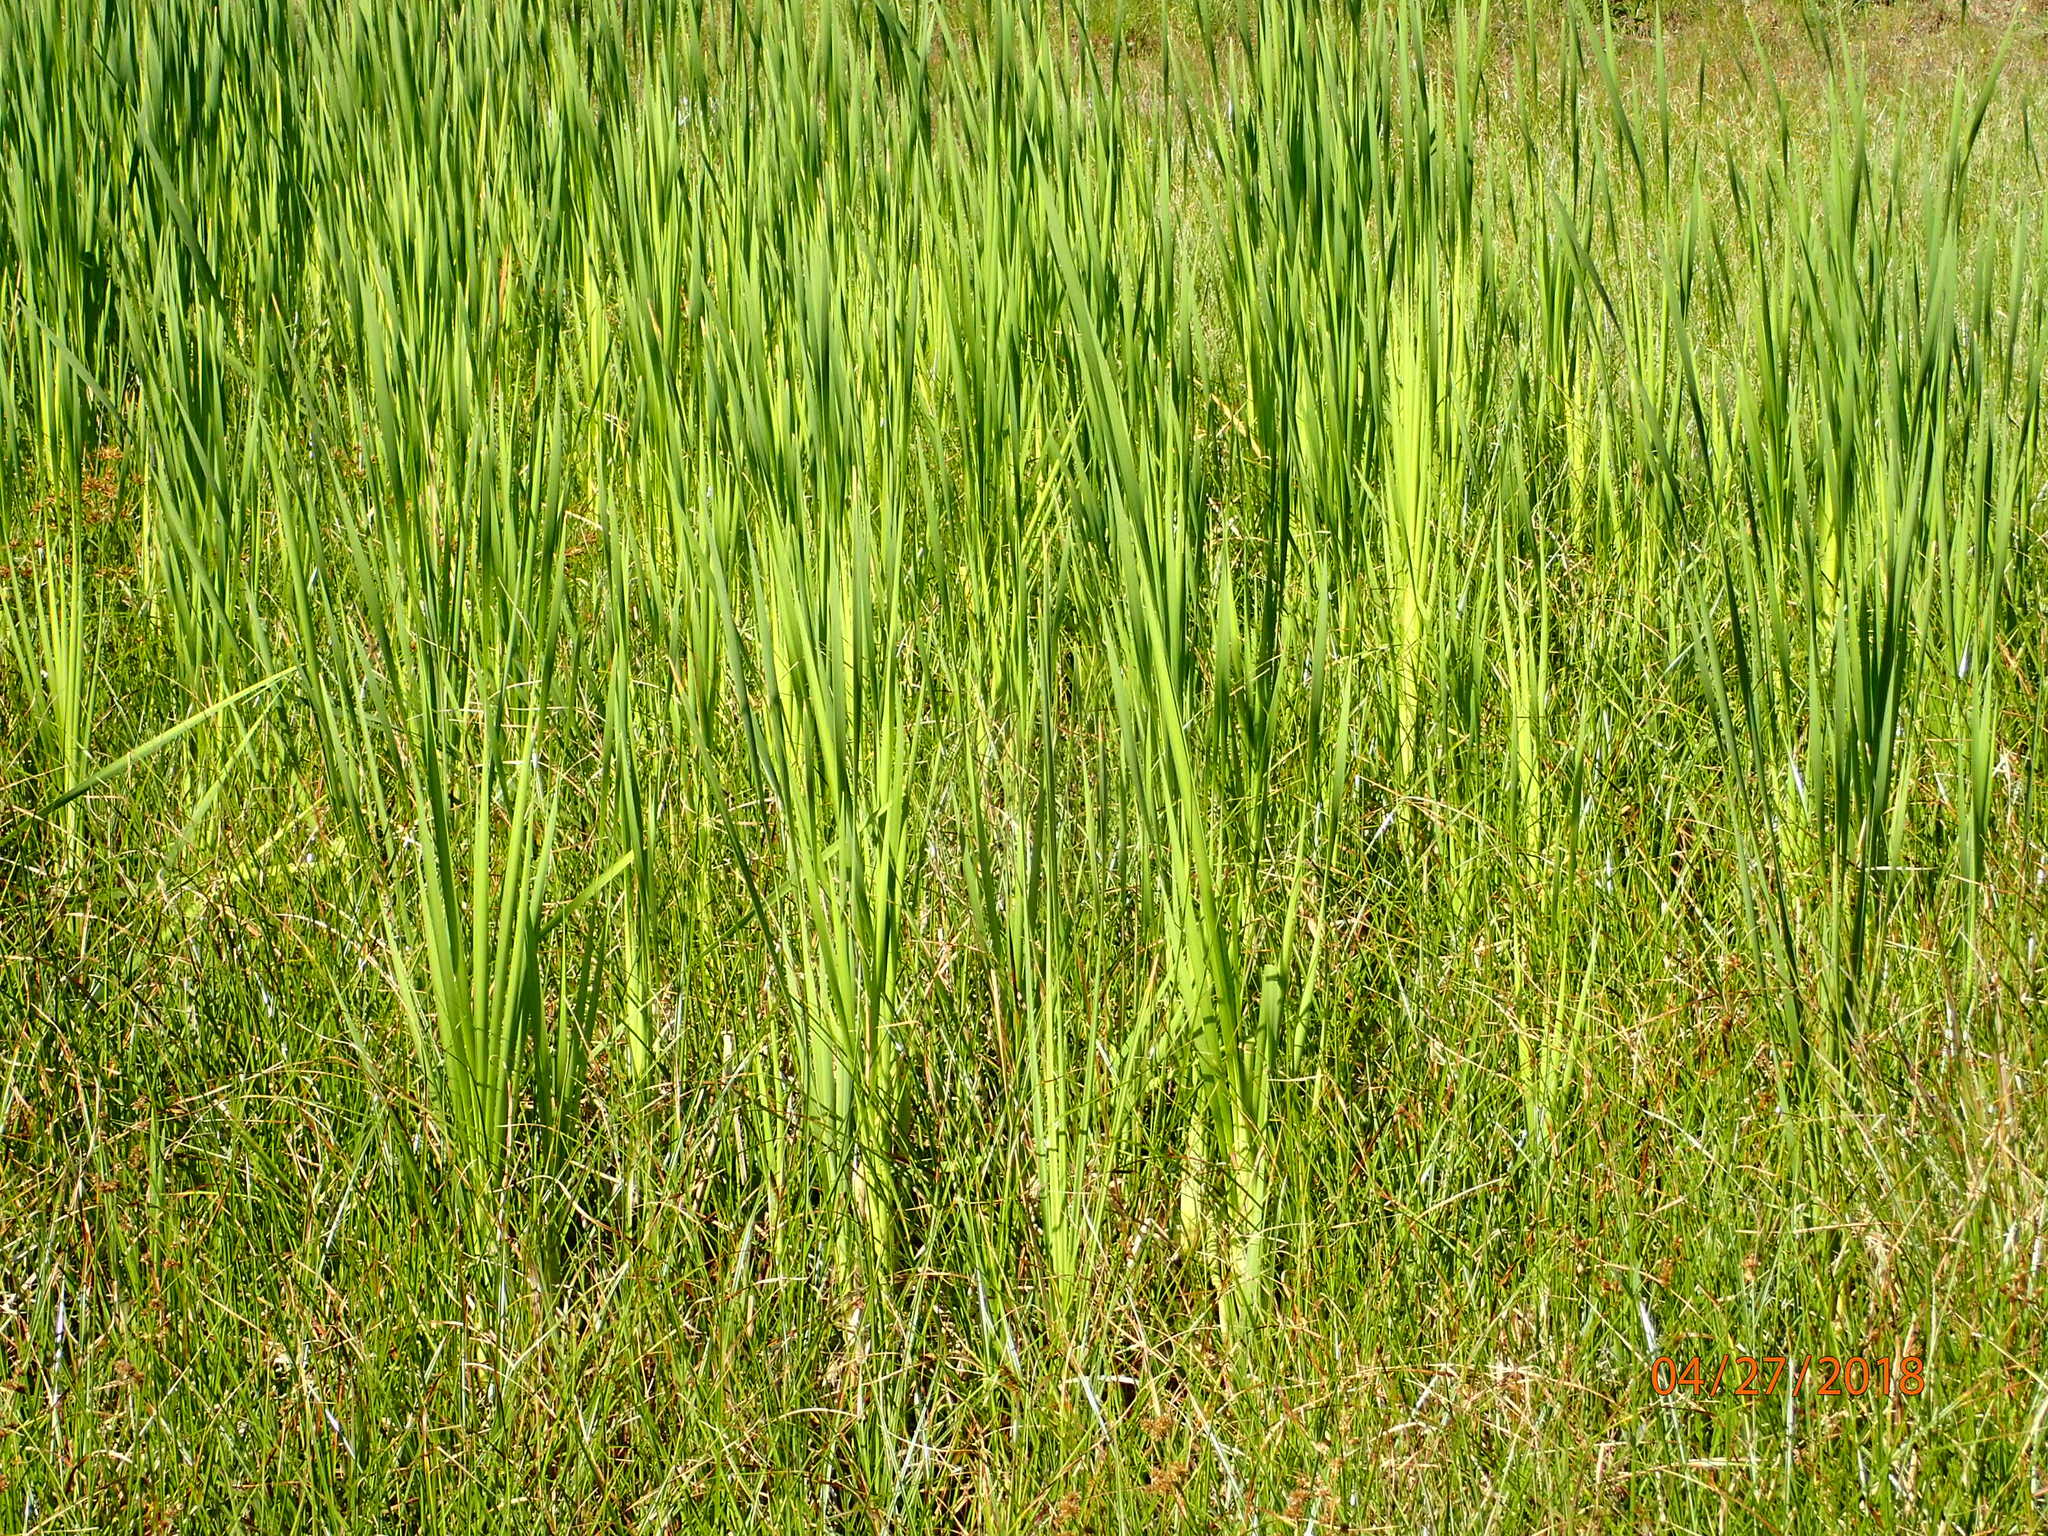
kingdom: Plantae
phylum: Tracheophyta
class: Liliopsida
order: Poales
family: Typhaceae
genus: Typha
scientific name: Typha latifolia
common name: Broadleaf cattail
